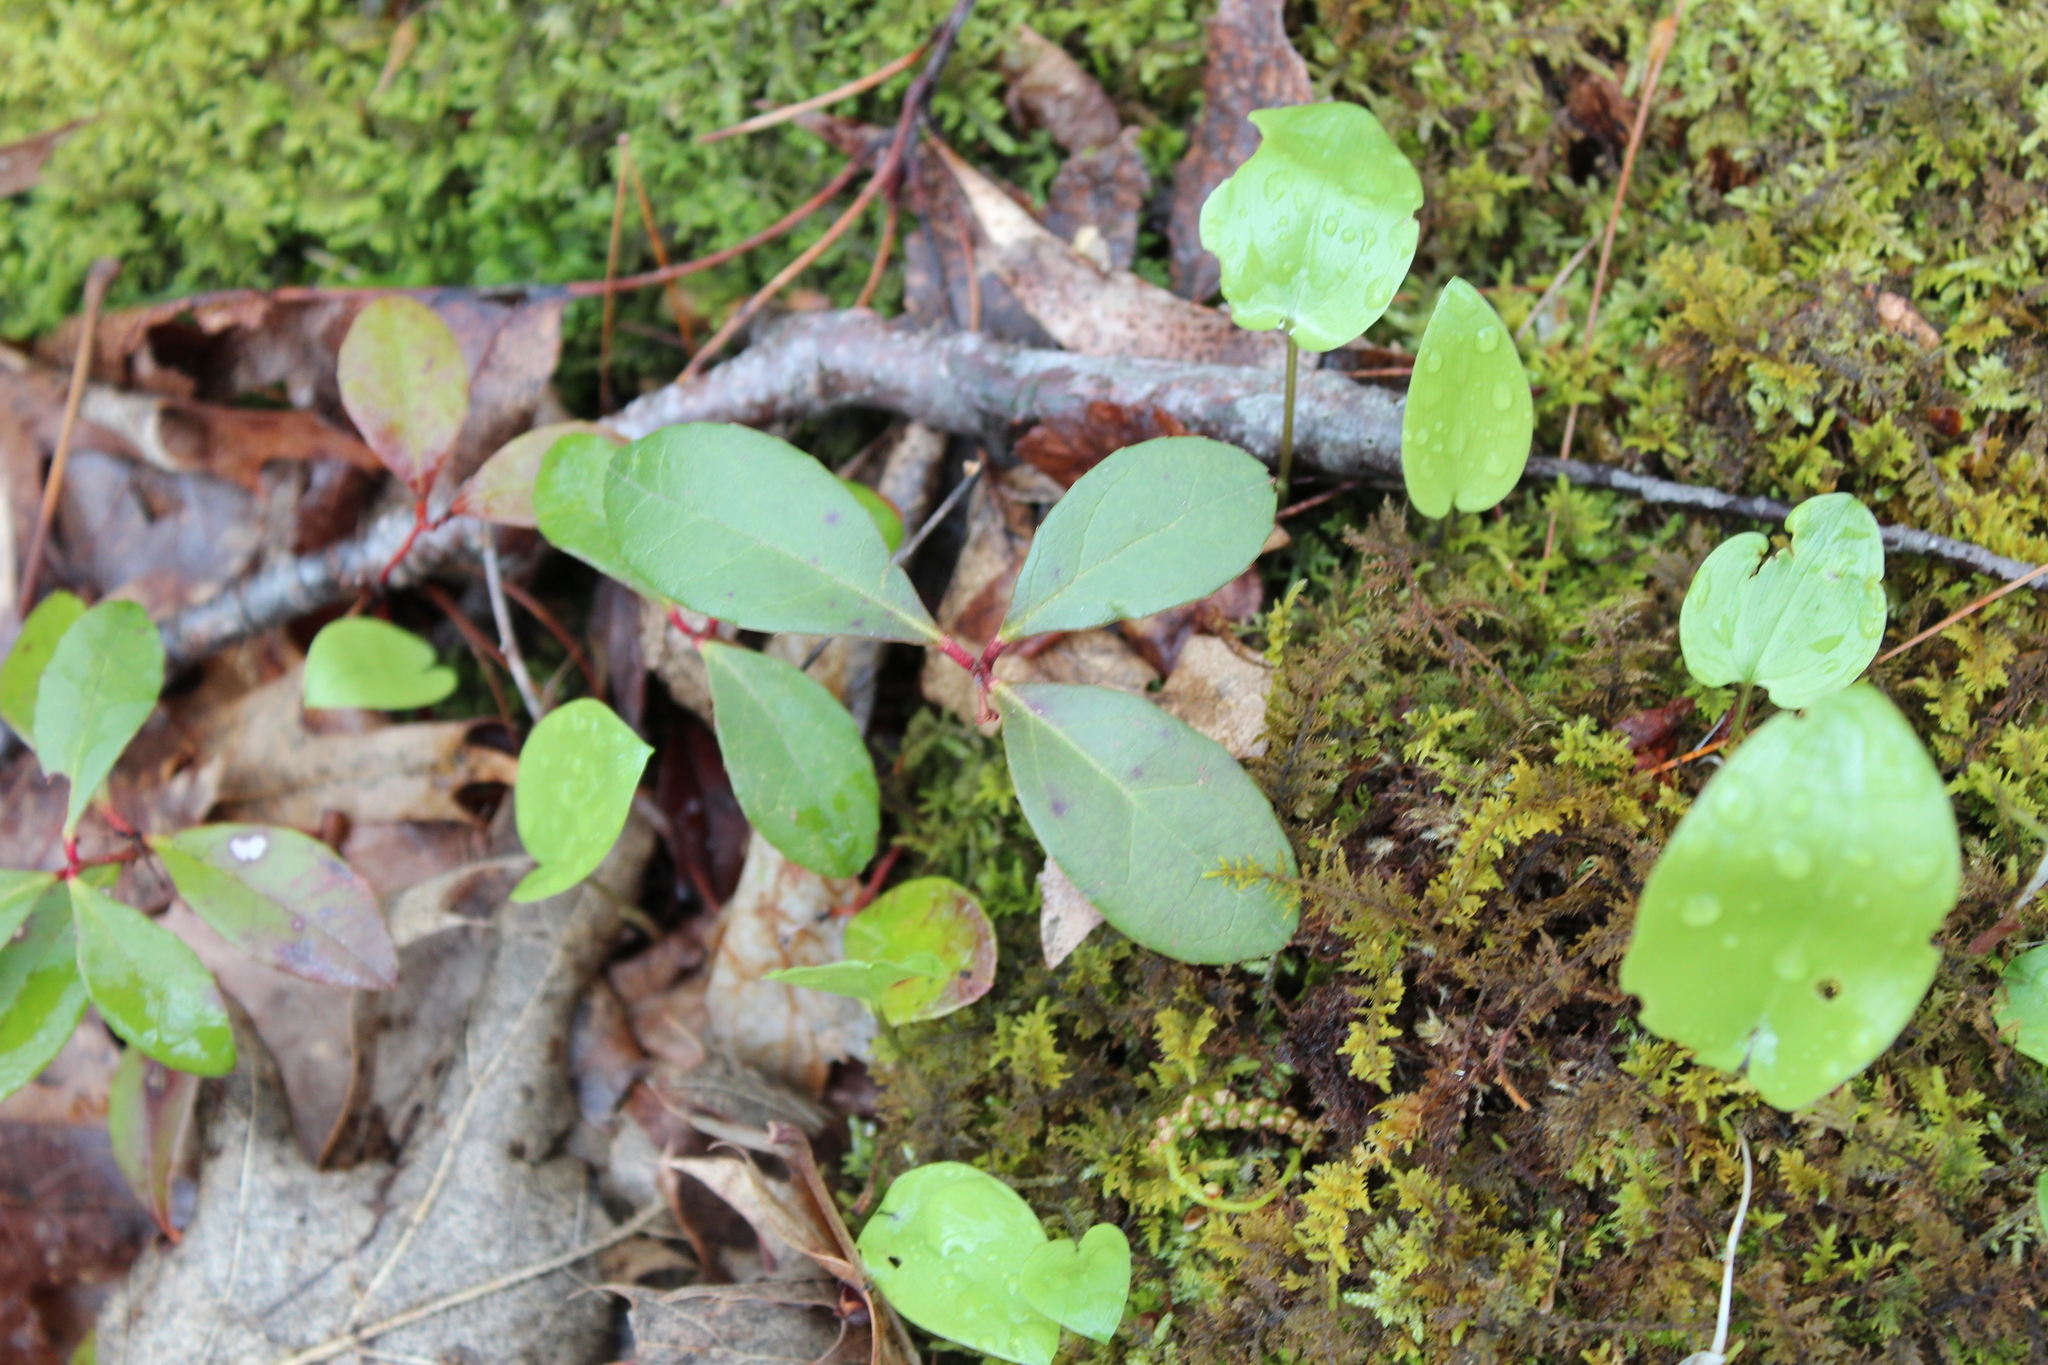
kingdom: Plantae
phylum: Tracheophyta
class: Magnoliopsida
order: Ericales
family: Ericaceae
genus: Gaultheria
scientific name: Gaultheria procumbens
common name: Checkerberry
